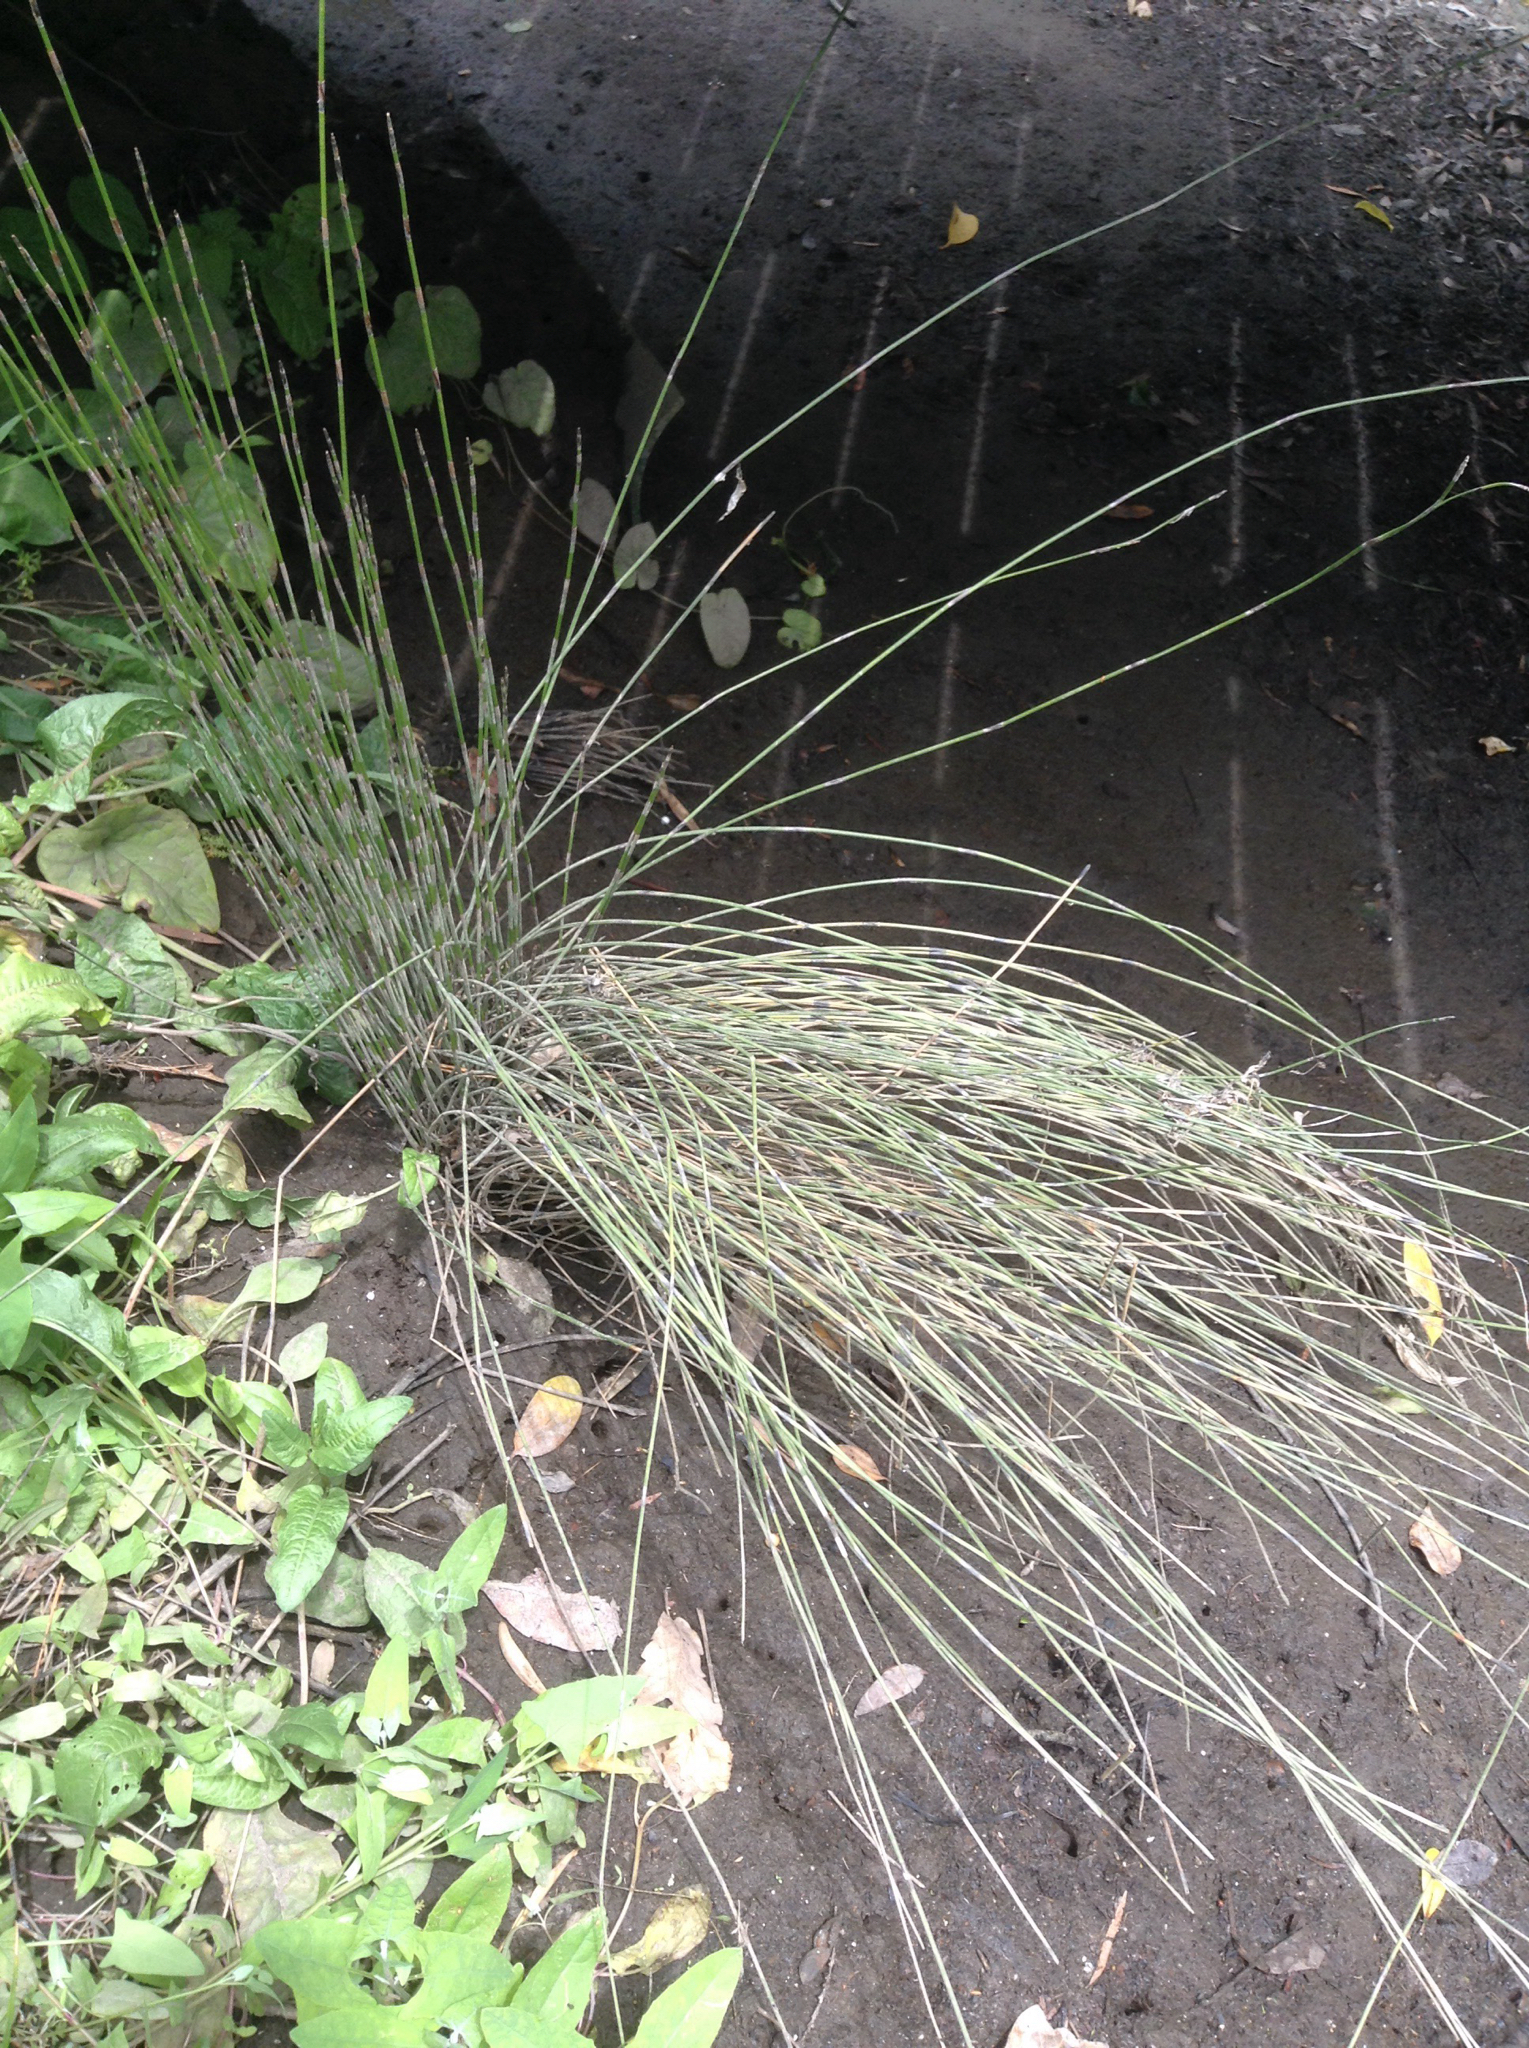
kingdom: Plantae
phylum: Tracheophyta
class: Liliopsida
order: Poales
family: Restionaceae
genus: Apodasmia
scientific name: Apodasmia similis
